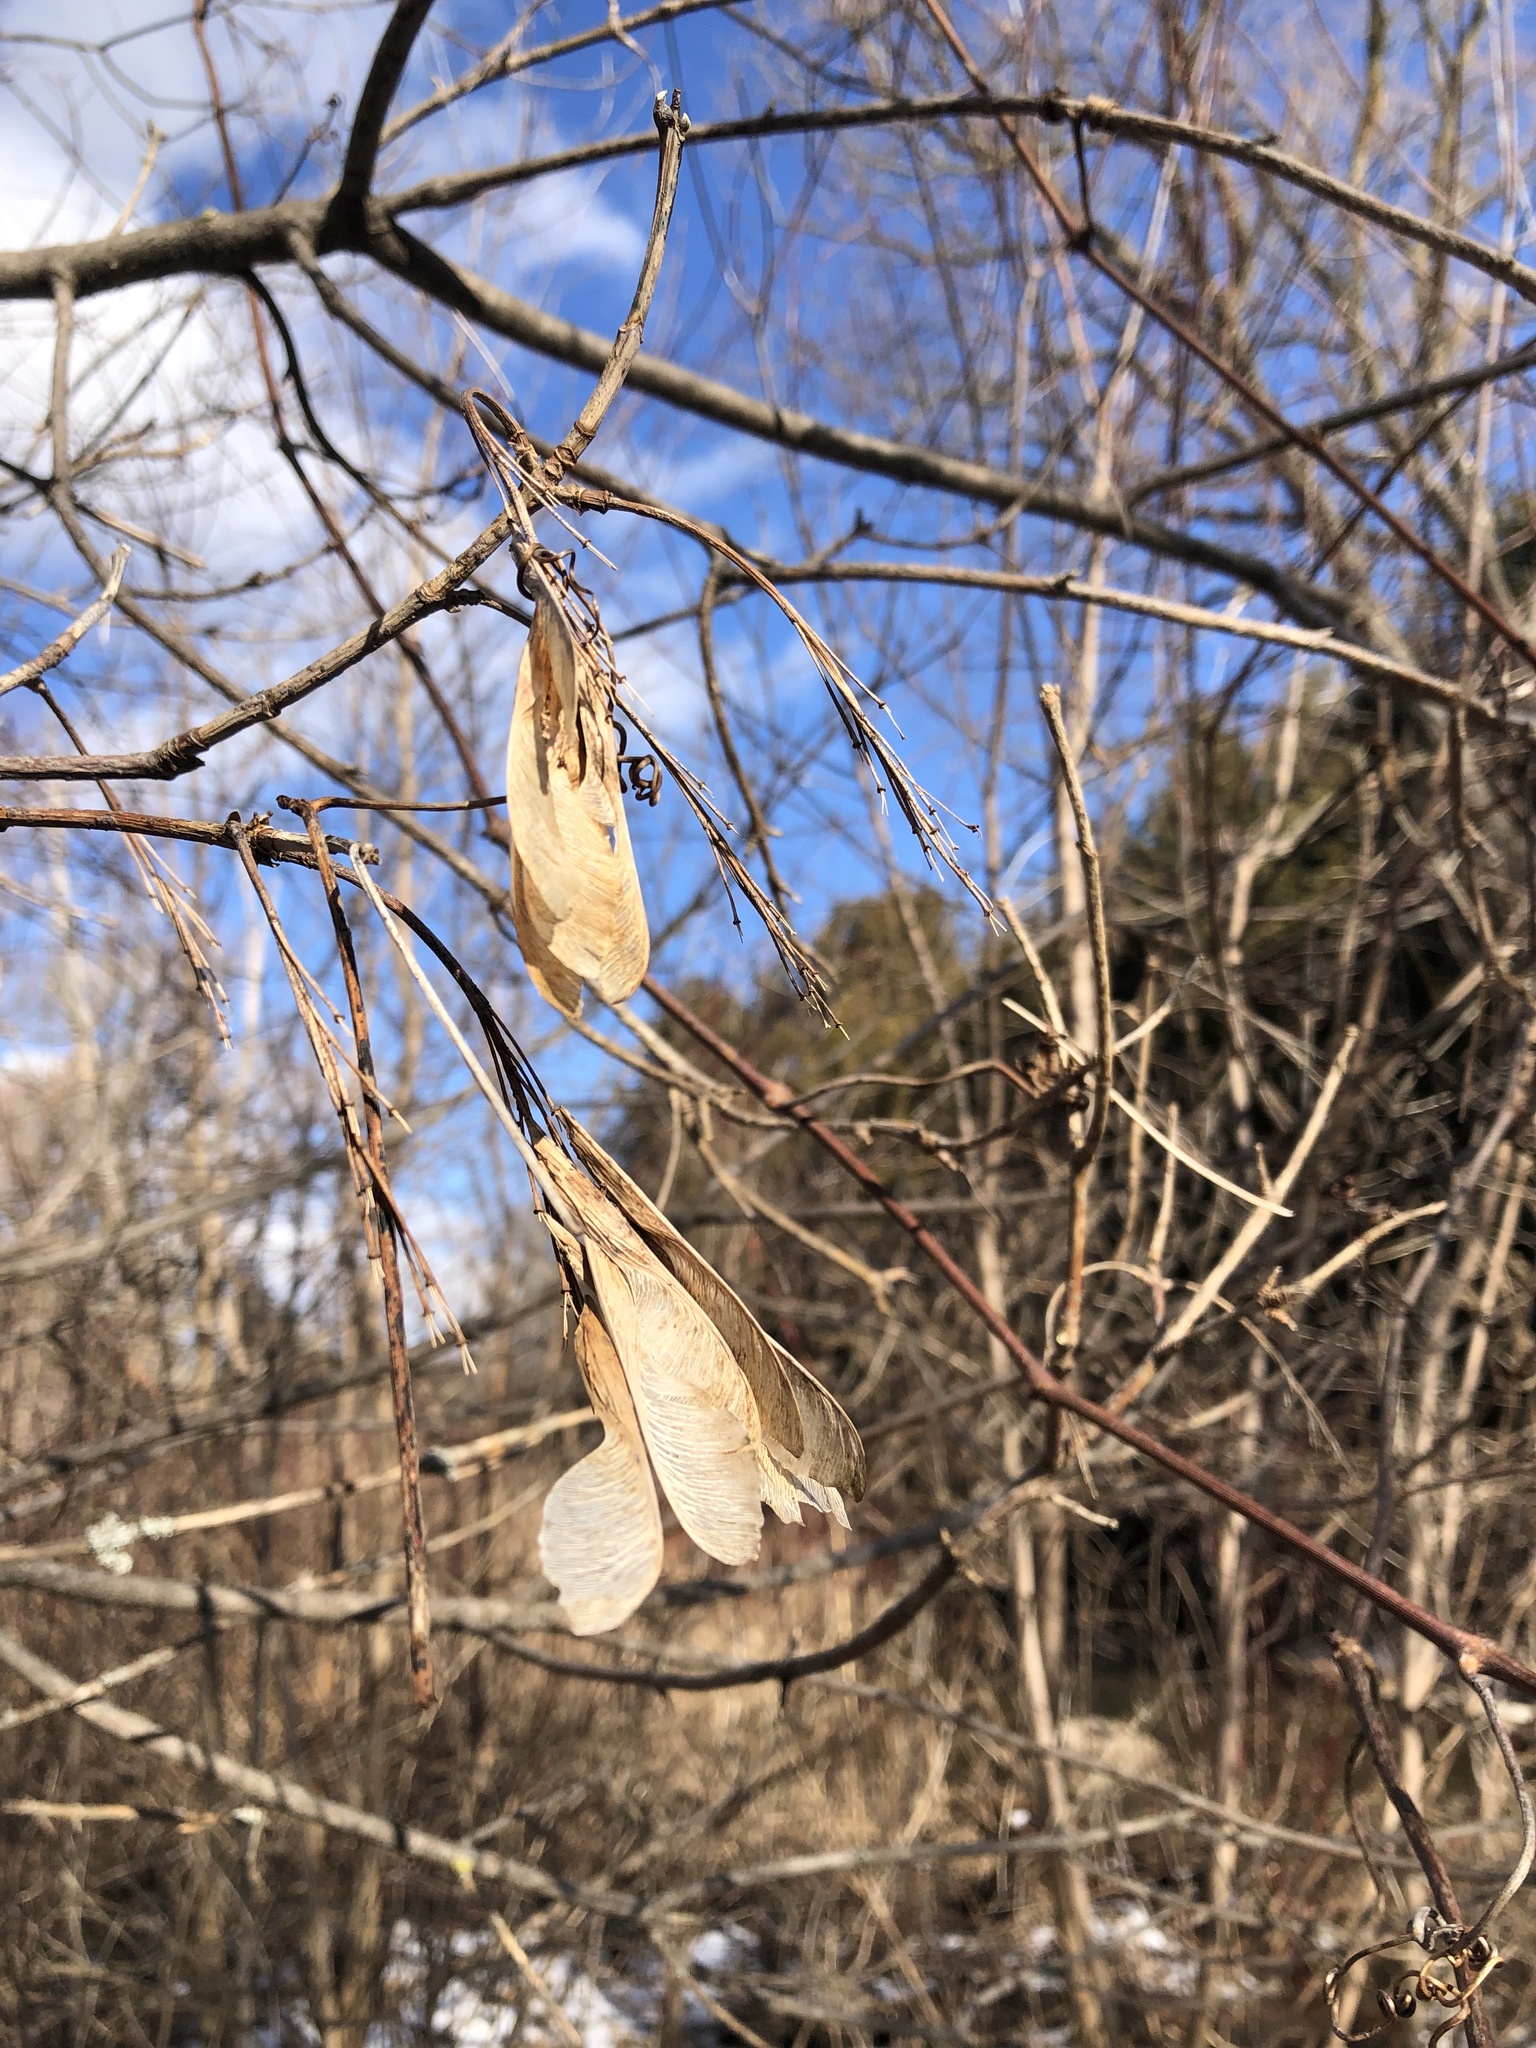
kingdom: Plantae
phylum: Tracheophyta
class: Magnoliopsida
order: Sapindales
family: Sapindaceae
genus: Acer
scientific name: Acer negundo
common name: Ashleaf maple
